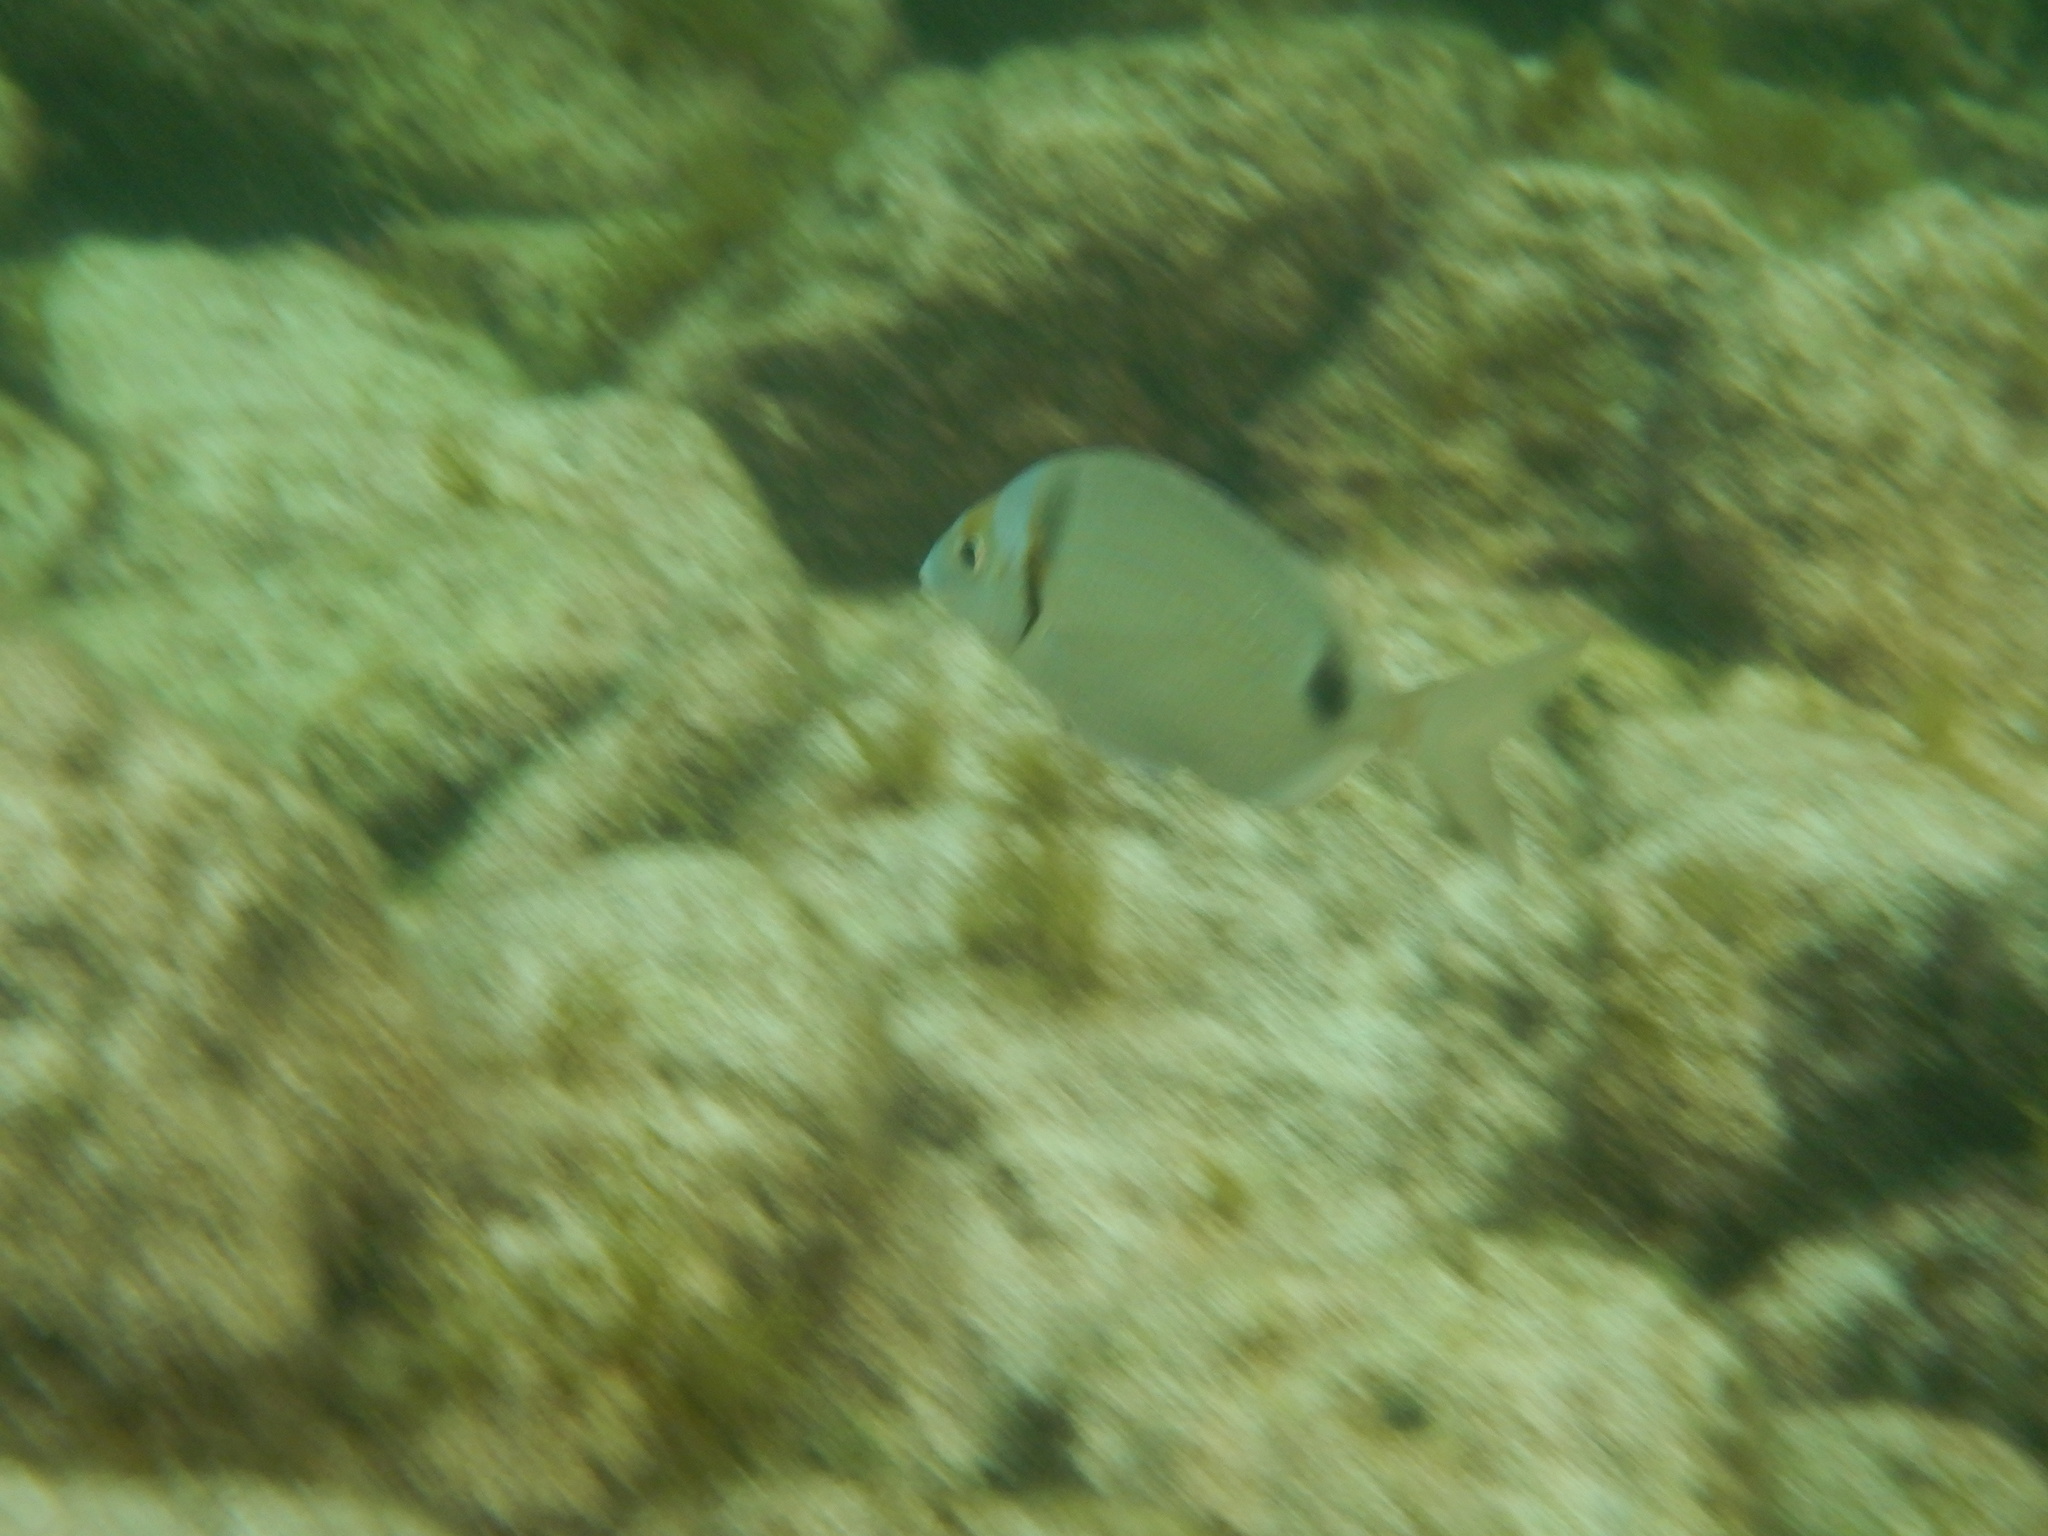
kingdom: Animalia
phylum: Chordata
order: Perciformes
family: Sparidae
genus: Diplodus
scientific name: Diplodus vulgaris
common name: Common two-banded seabream
